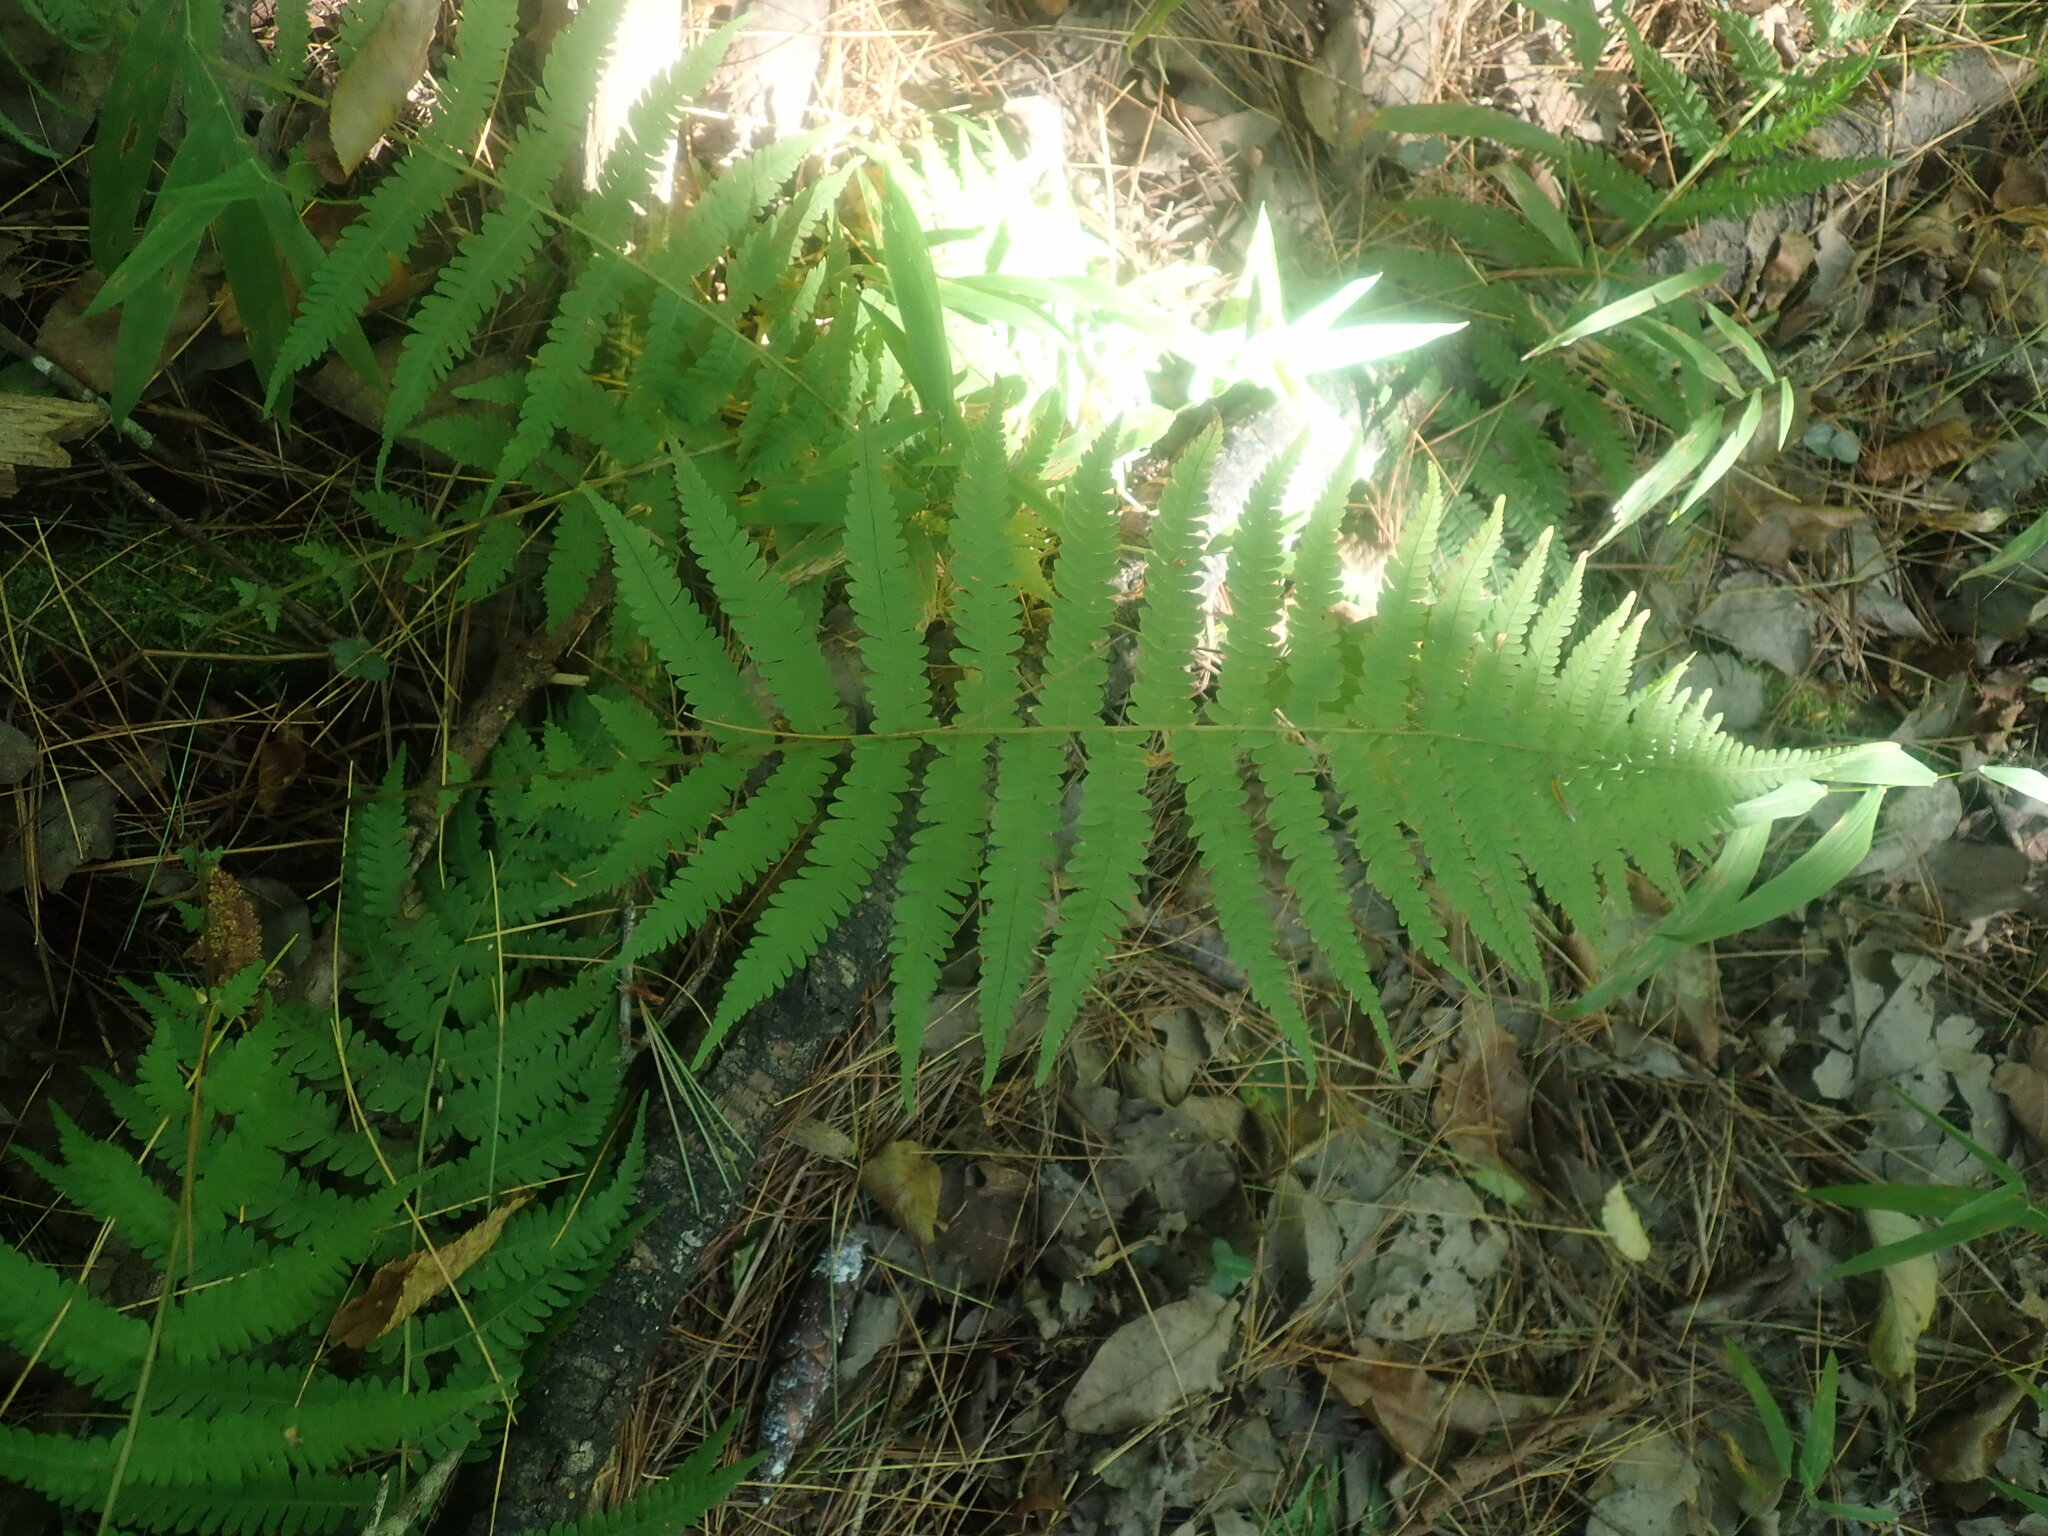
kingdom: Plantae
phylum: Tracheophyta
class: Polypodiopsida
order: Polypodiales
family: Thelypteridaceae
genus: Amauropelta
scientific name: Amauropelta noveboracensis
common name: New york fern
